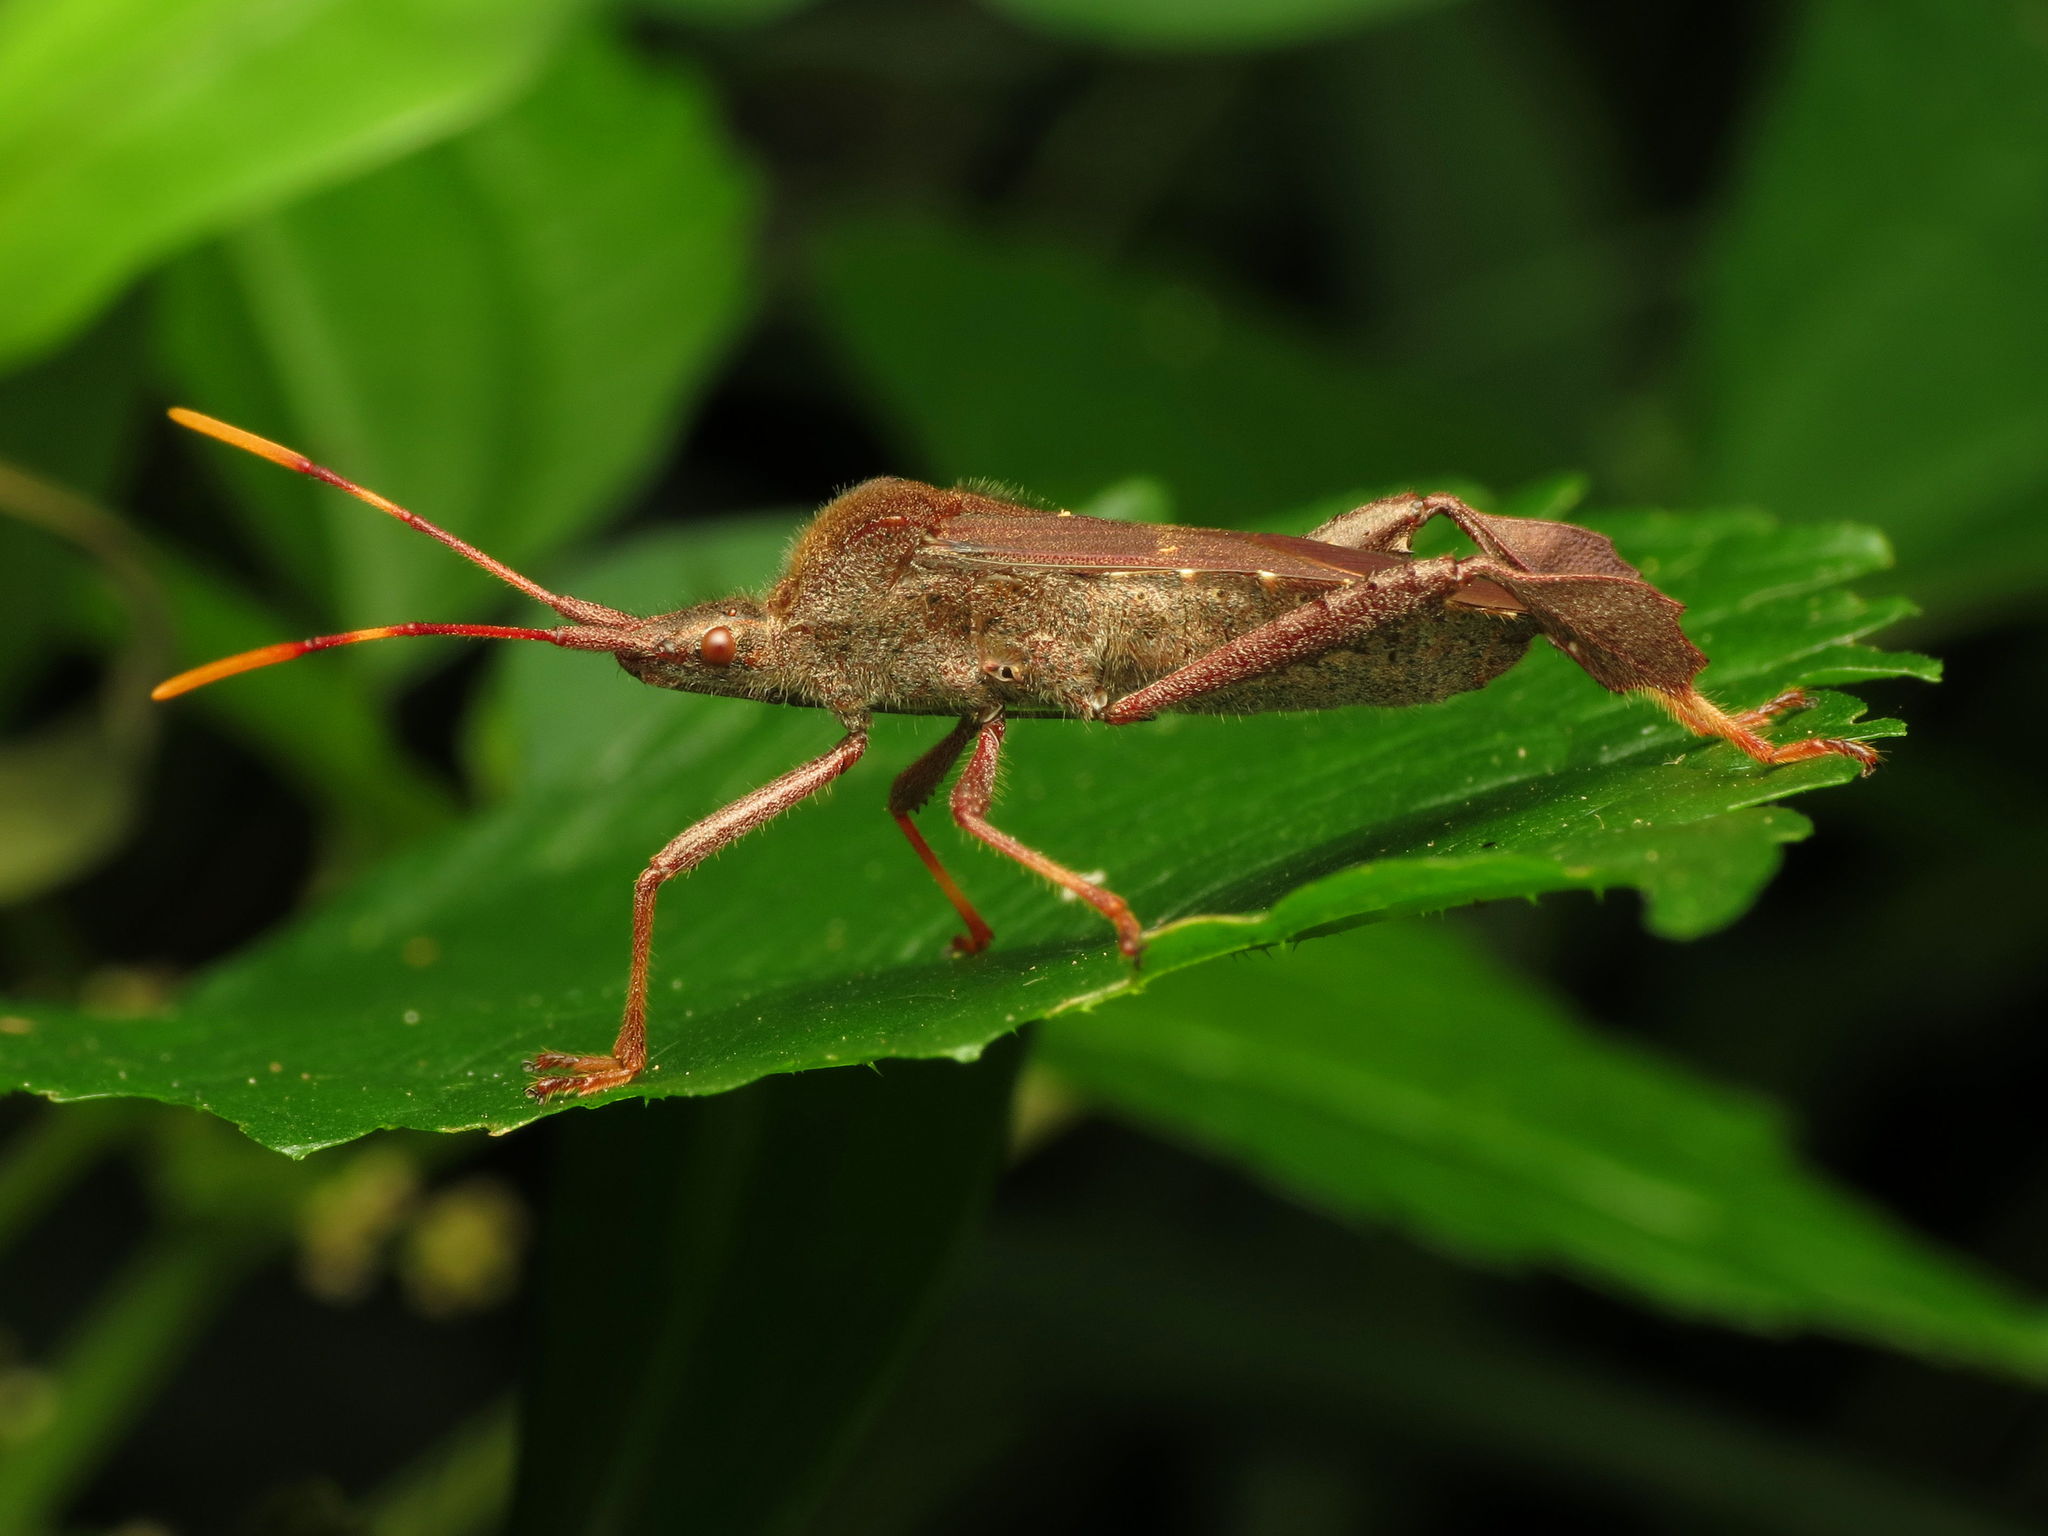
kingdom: Animalia
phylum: Arthropoda
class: Insecta
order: Hemiptera
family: Coreidae
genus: Leptoglossus
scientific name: Leptoglossus oppositus
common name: Northern leaf-footed bug
